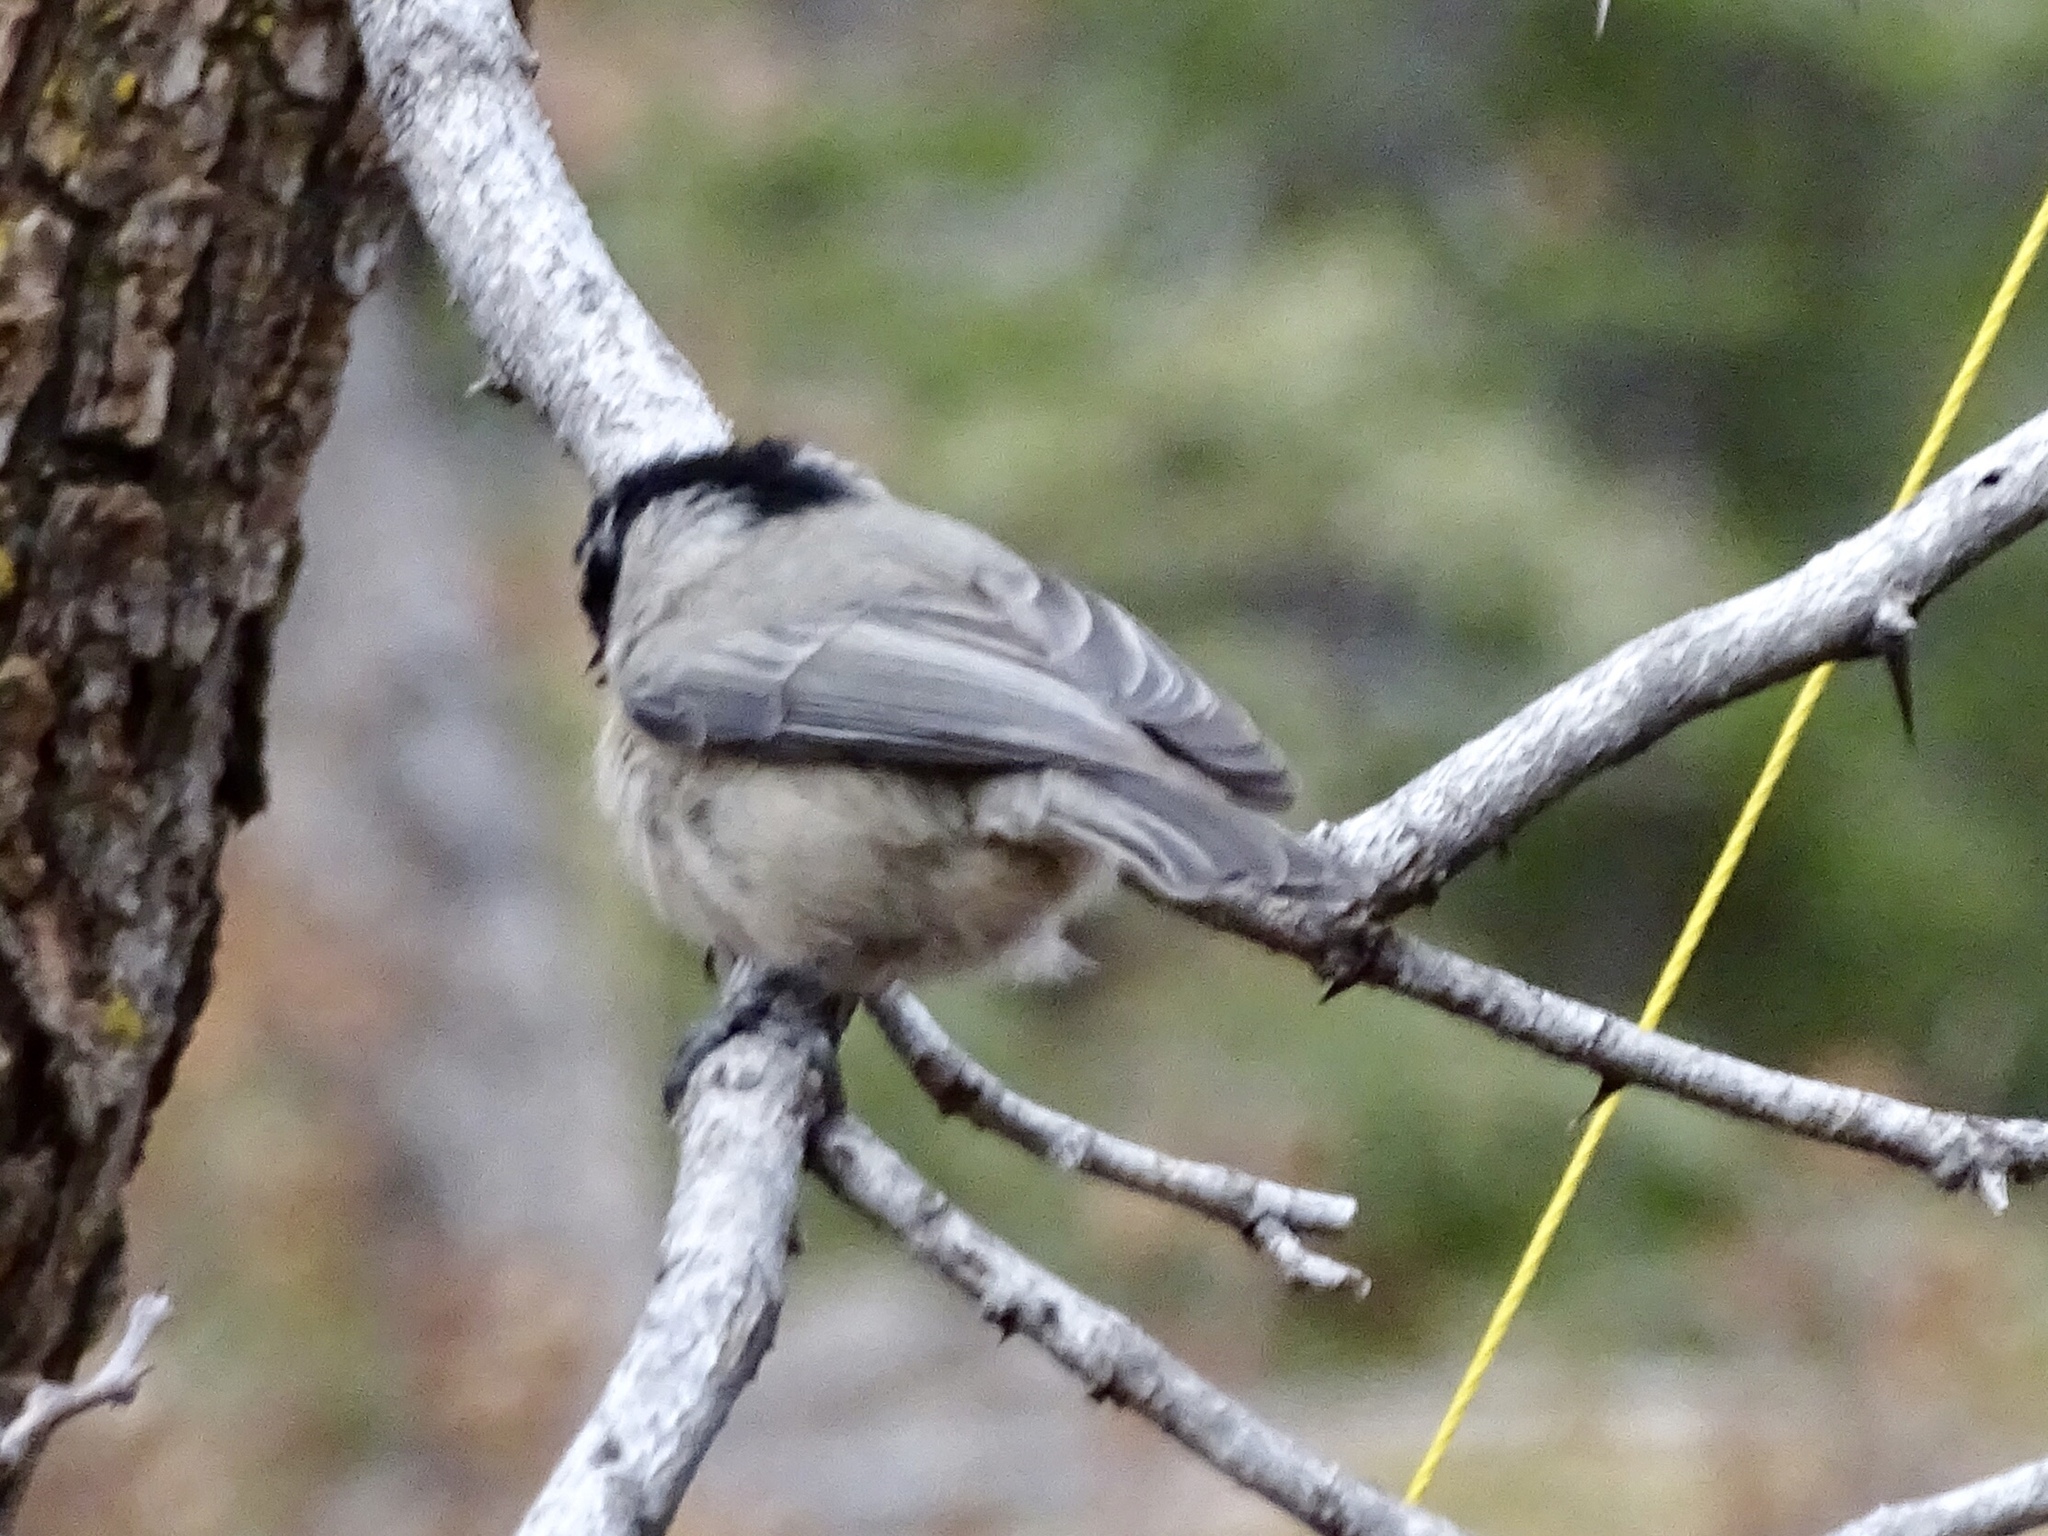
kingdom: Animalia
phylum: Chordata
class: Aves
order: Passeriformes
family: Paridae
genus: Poecile
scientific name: Poecile gambeli
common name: Mountain chickadee
